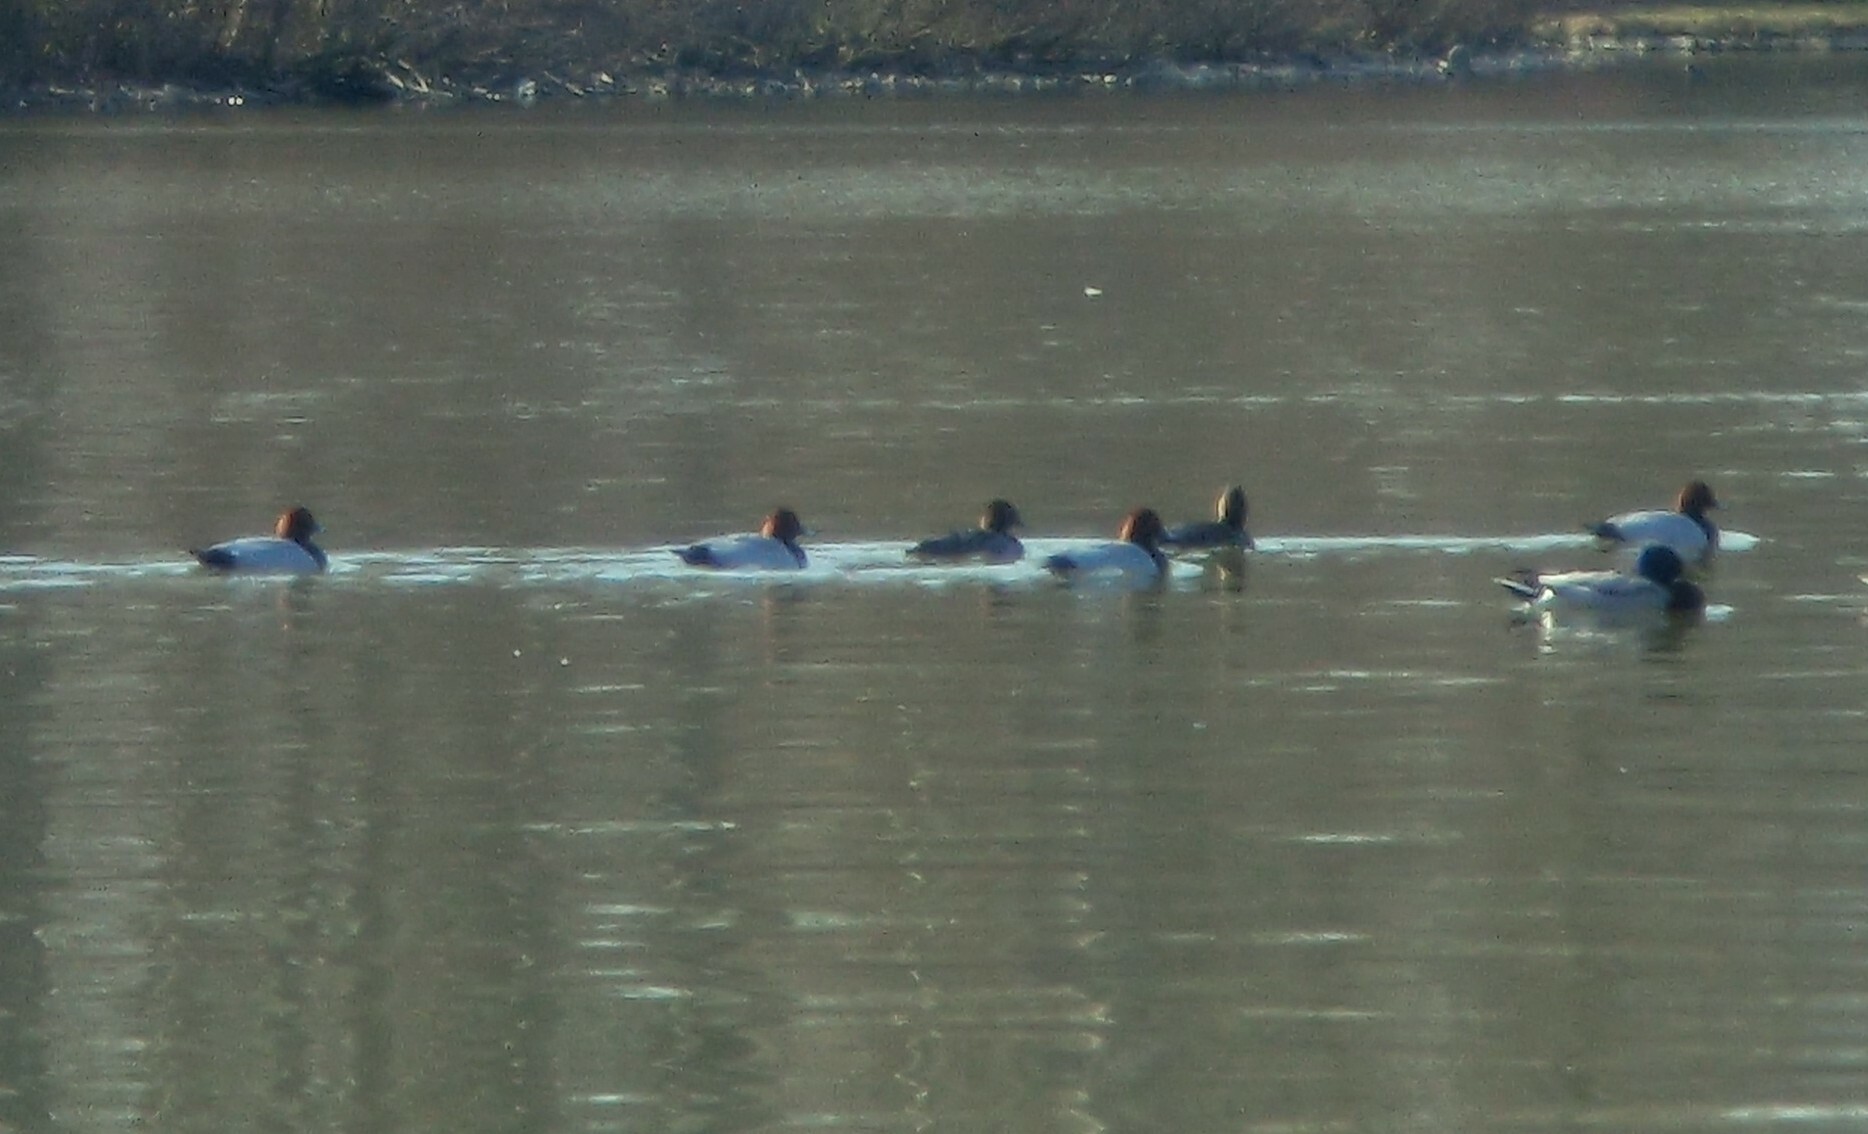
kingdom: Animalia
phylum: Chordata
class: Aves
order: Anseriformes
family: Anatidae
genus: Aythya
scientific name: Aythya ferina
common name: Common pochard
